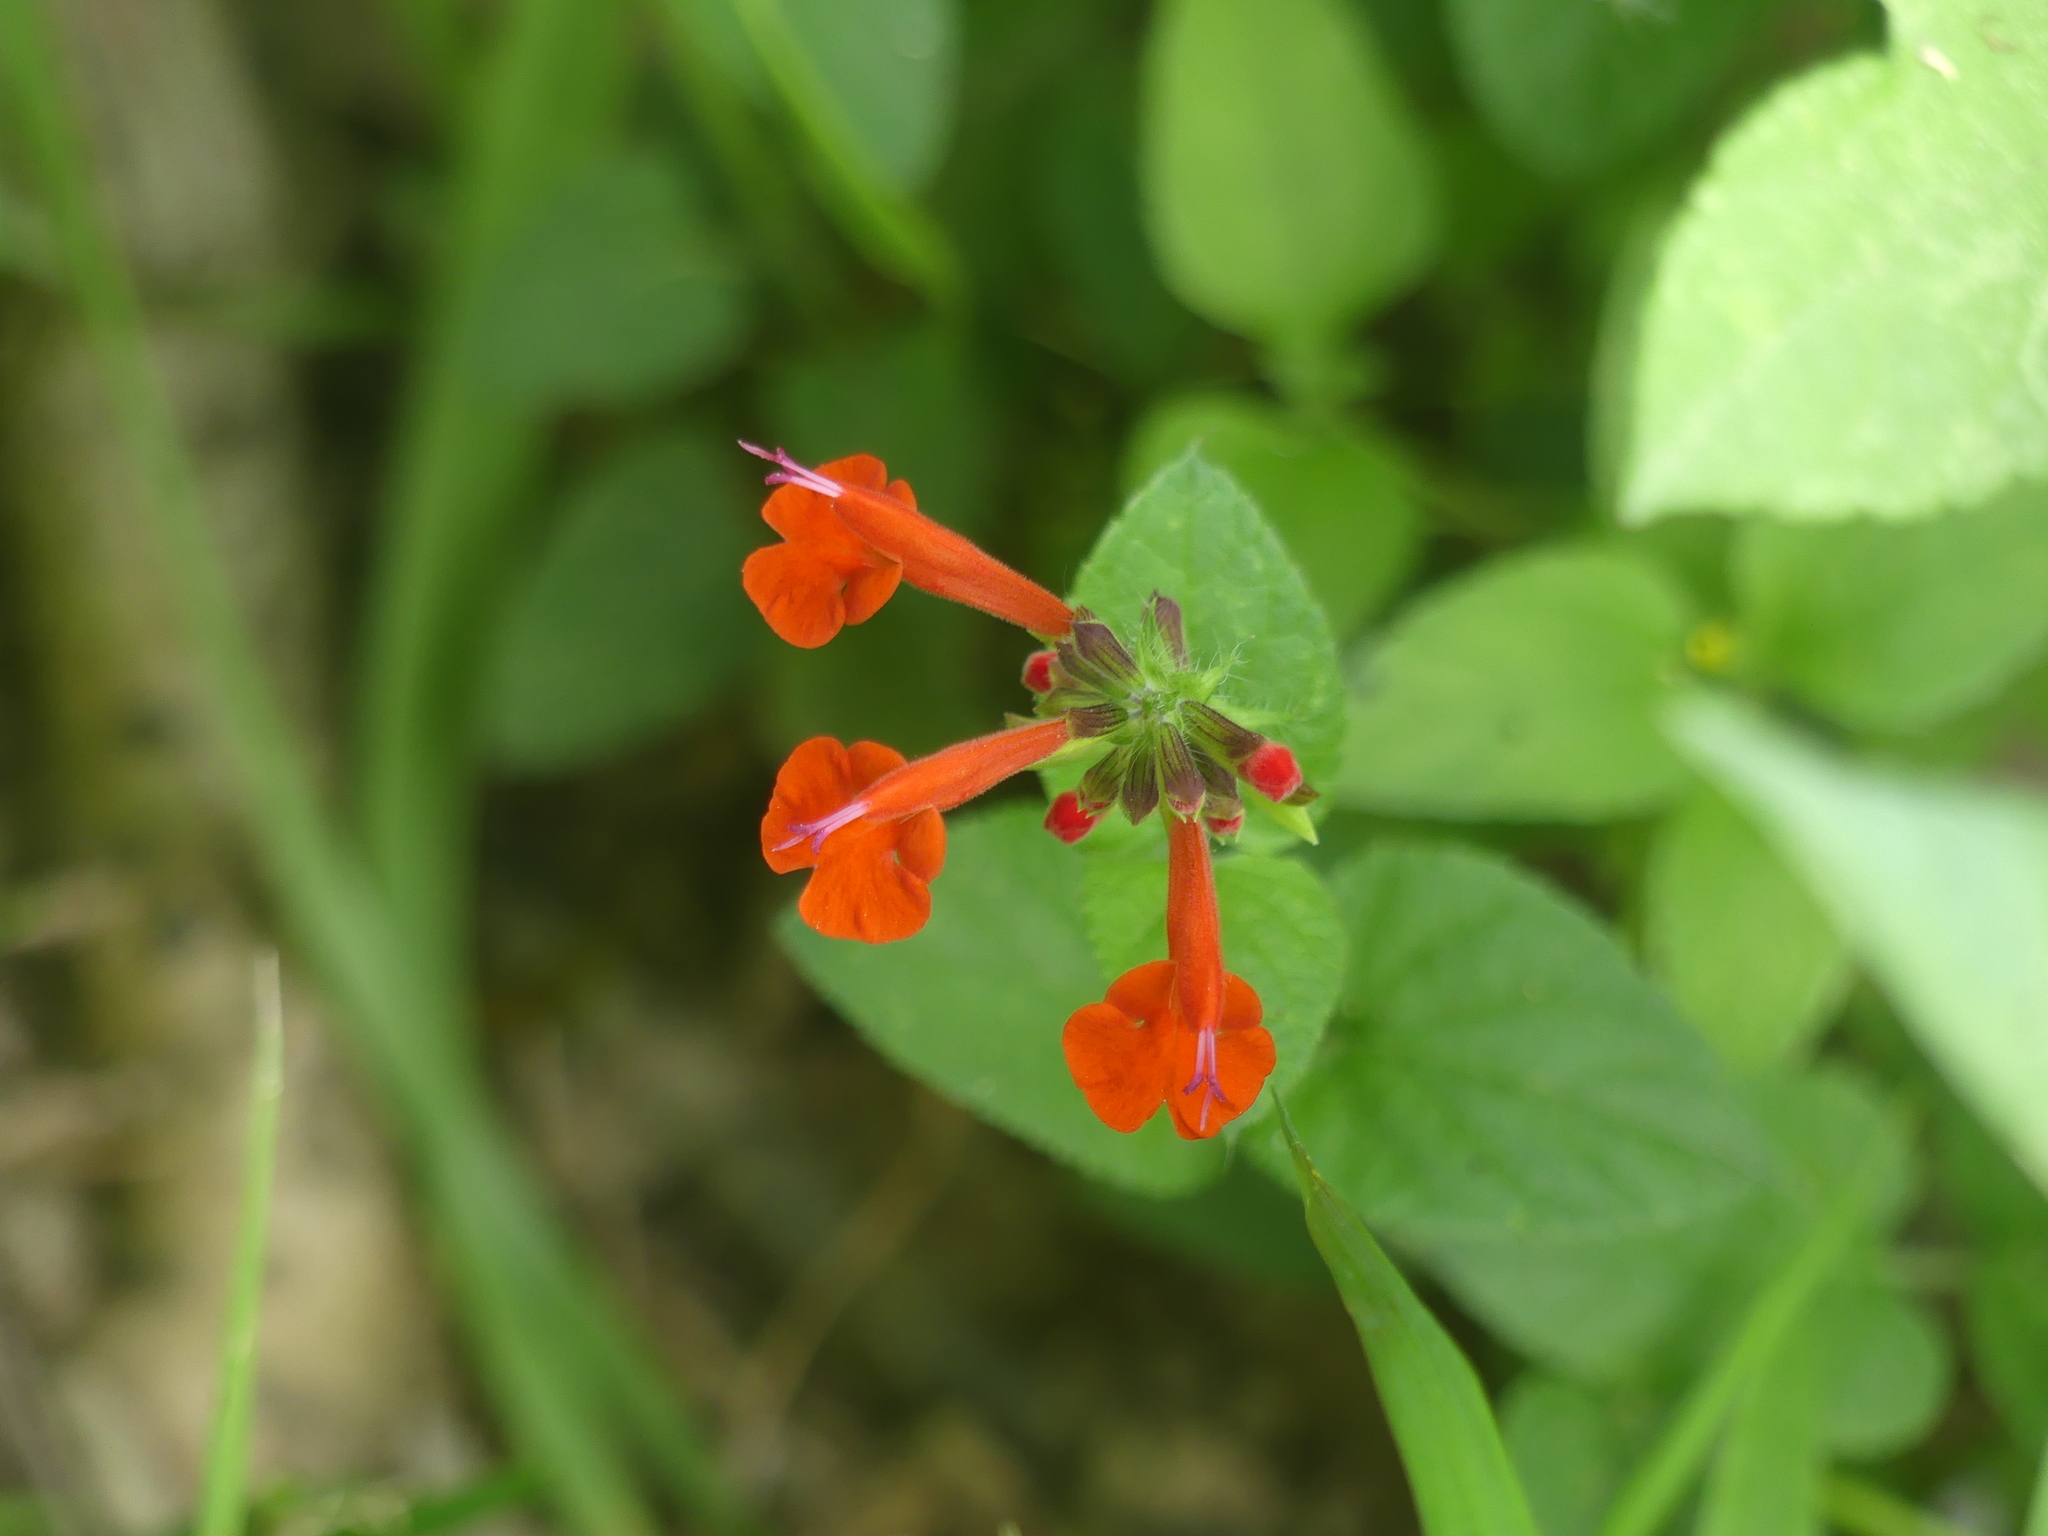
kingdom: Plantae
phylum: Tracheophyta
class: Magnoliopsida
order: Lamiales
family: Lamiaceae
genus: Salvia
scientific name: Salvia coccinea
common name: Blood sage
